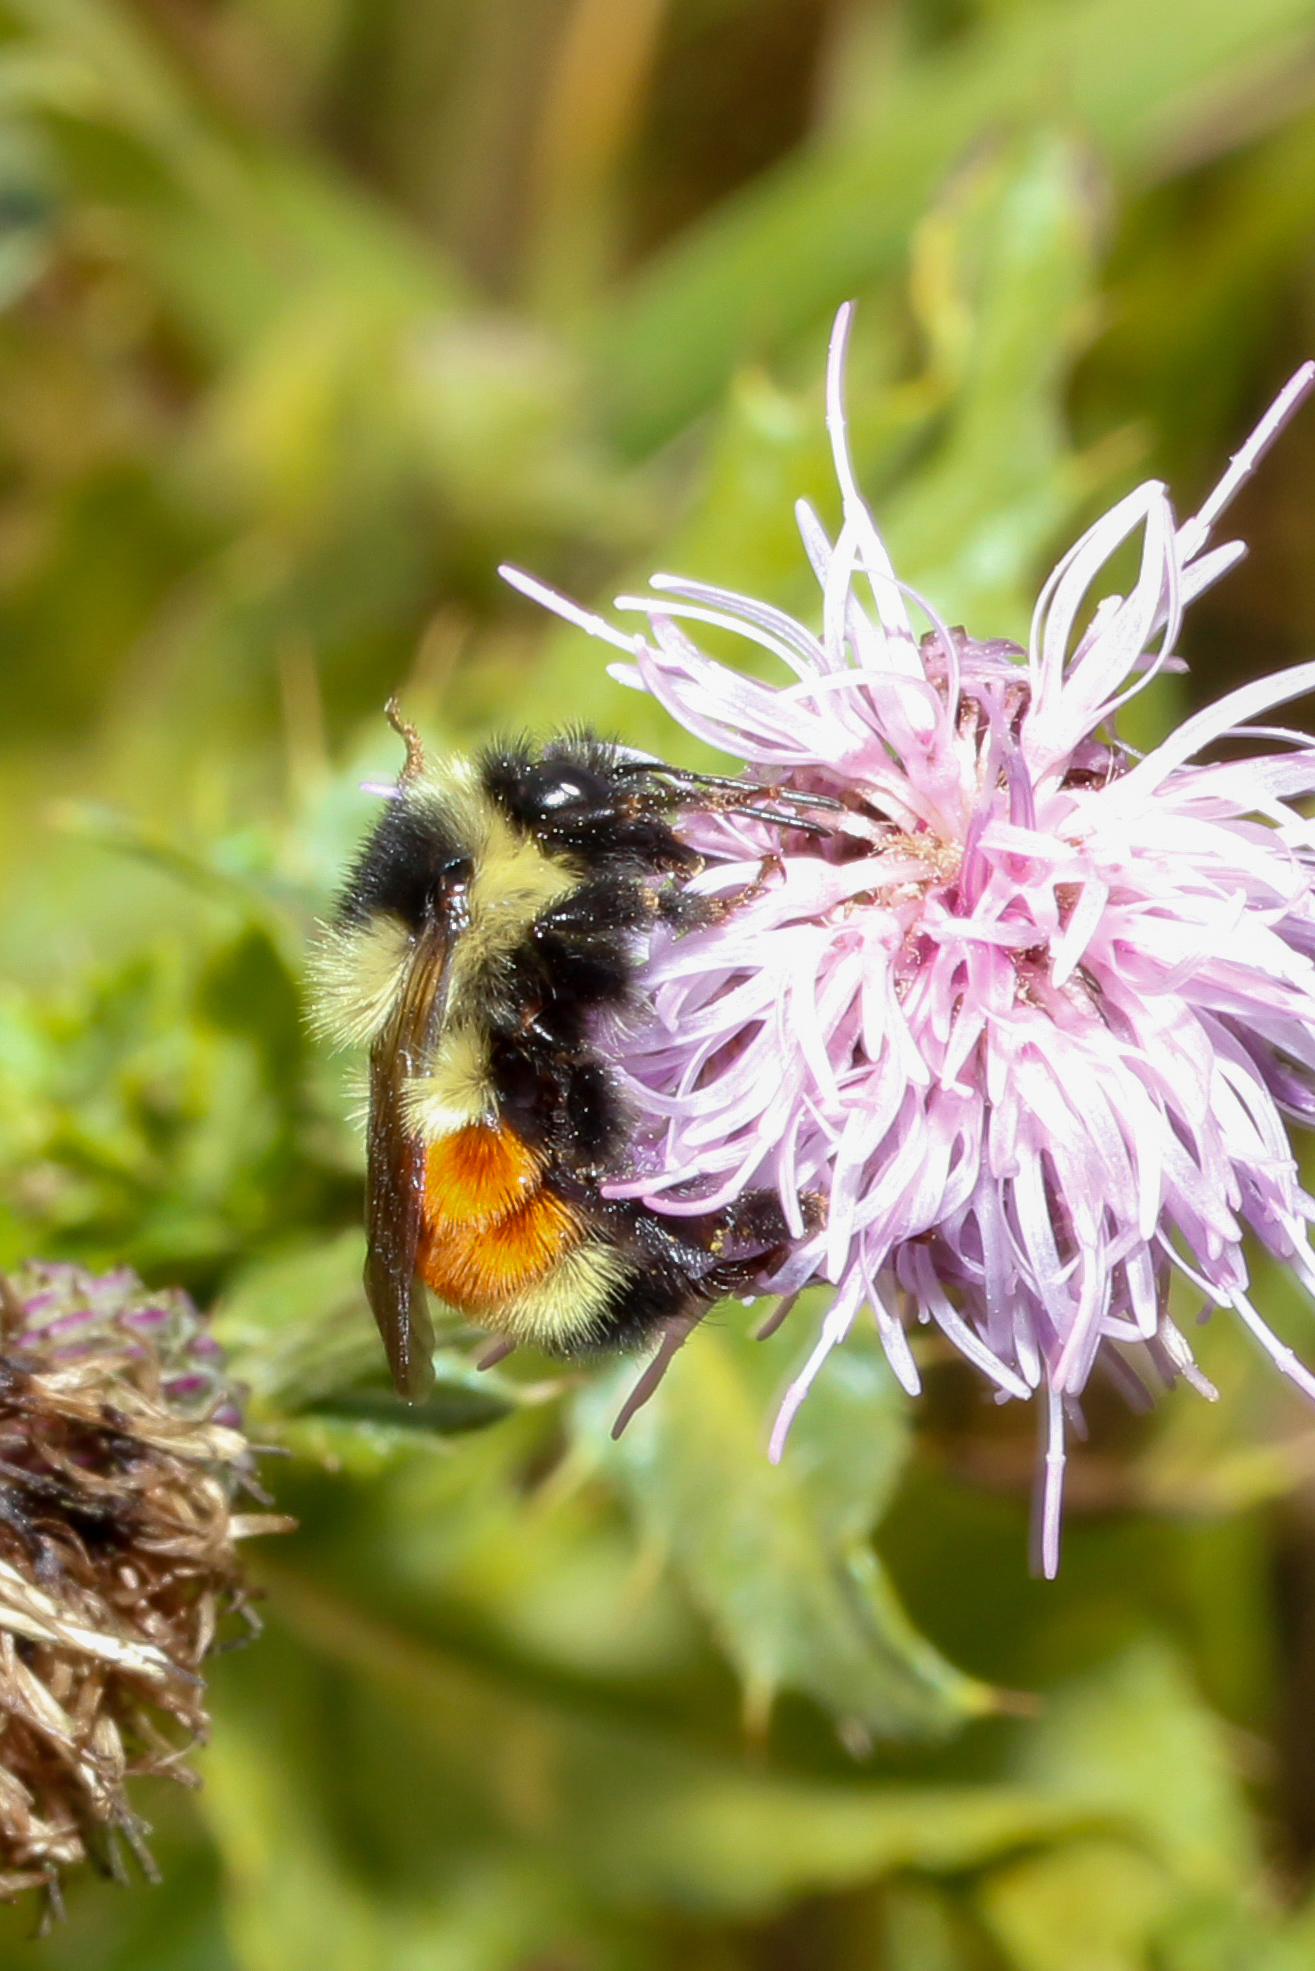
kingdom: Animalia
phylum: Arthropoda
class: Insecta
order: Hymenoptera
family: Apidae
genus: Bombus
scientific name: Bombus ternarius
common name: Tri-colored bumble bee
